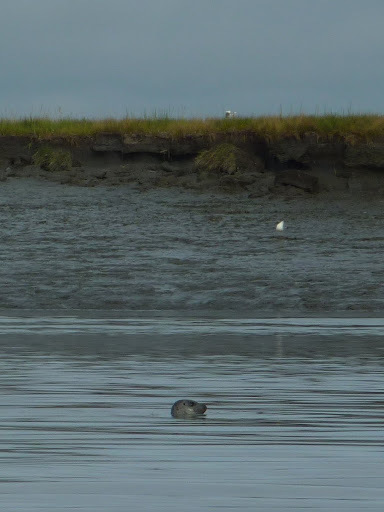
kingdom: Animalia
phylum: Chordata
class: Mammalia
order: Carnivora
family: Phocidae
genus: Phoca
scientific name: Phoca vitulina
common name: Harbor seal
